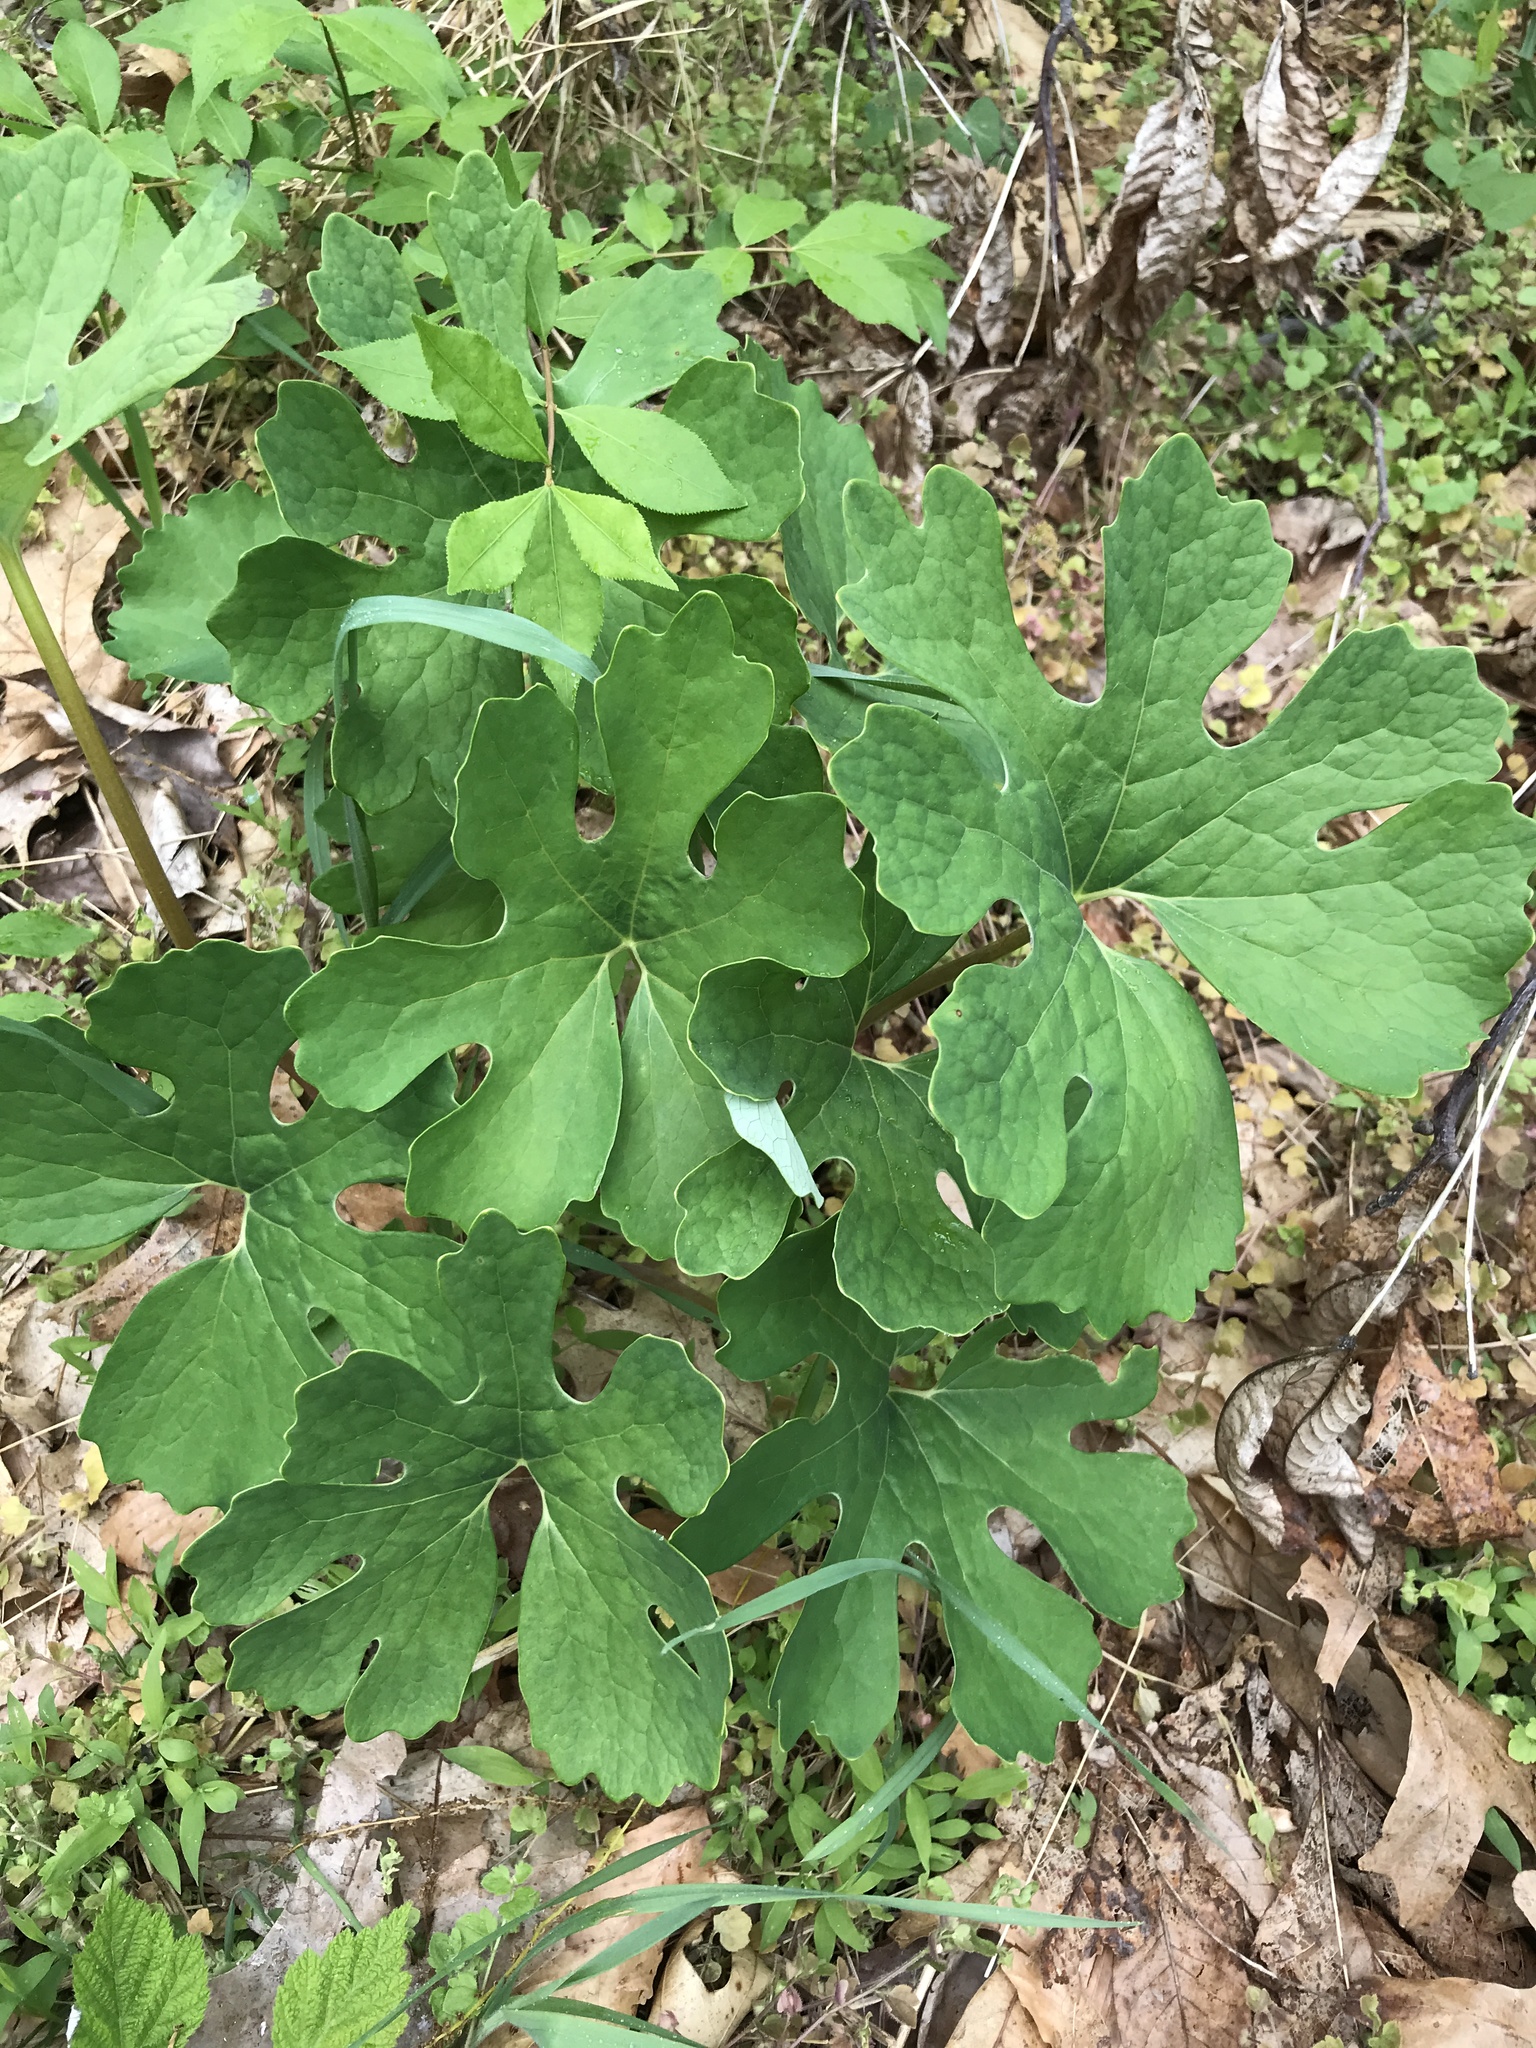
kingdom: Plantae
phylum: Tracheophyta
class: Magnoliopsida
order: Ranunculales
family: Papaveraceae
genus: Sanguinaria
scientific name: Sanguinaria canadensis
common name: Bloodroot
